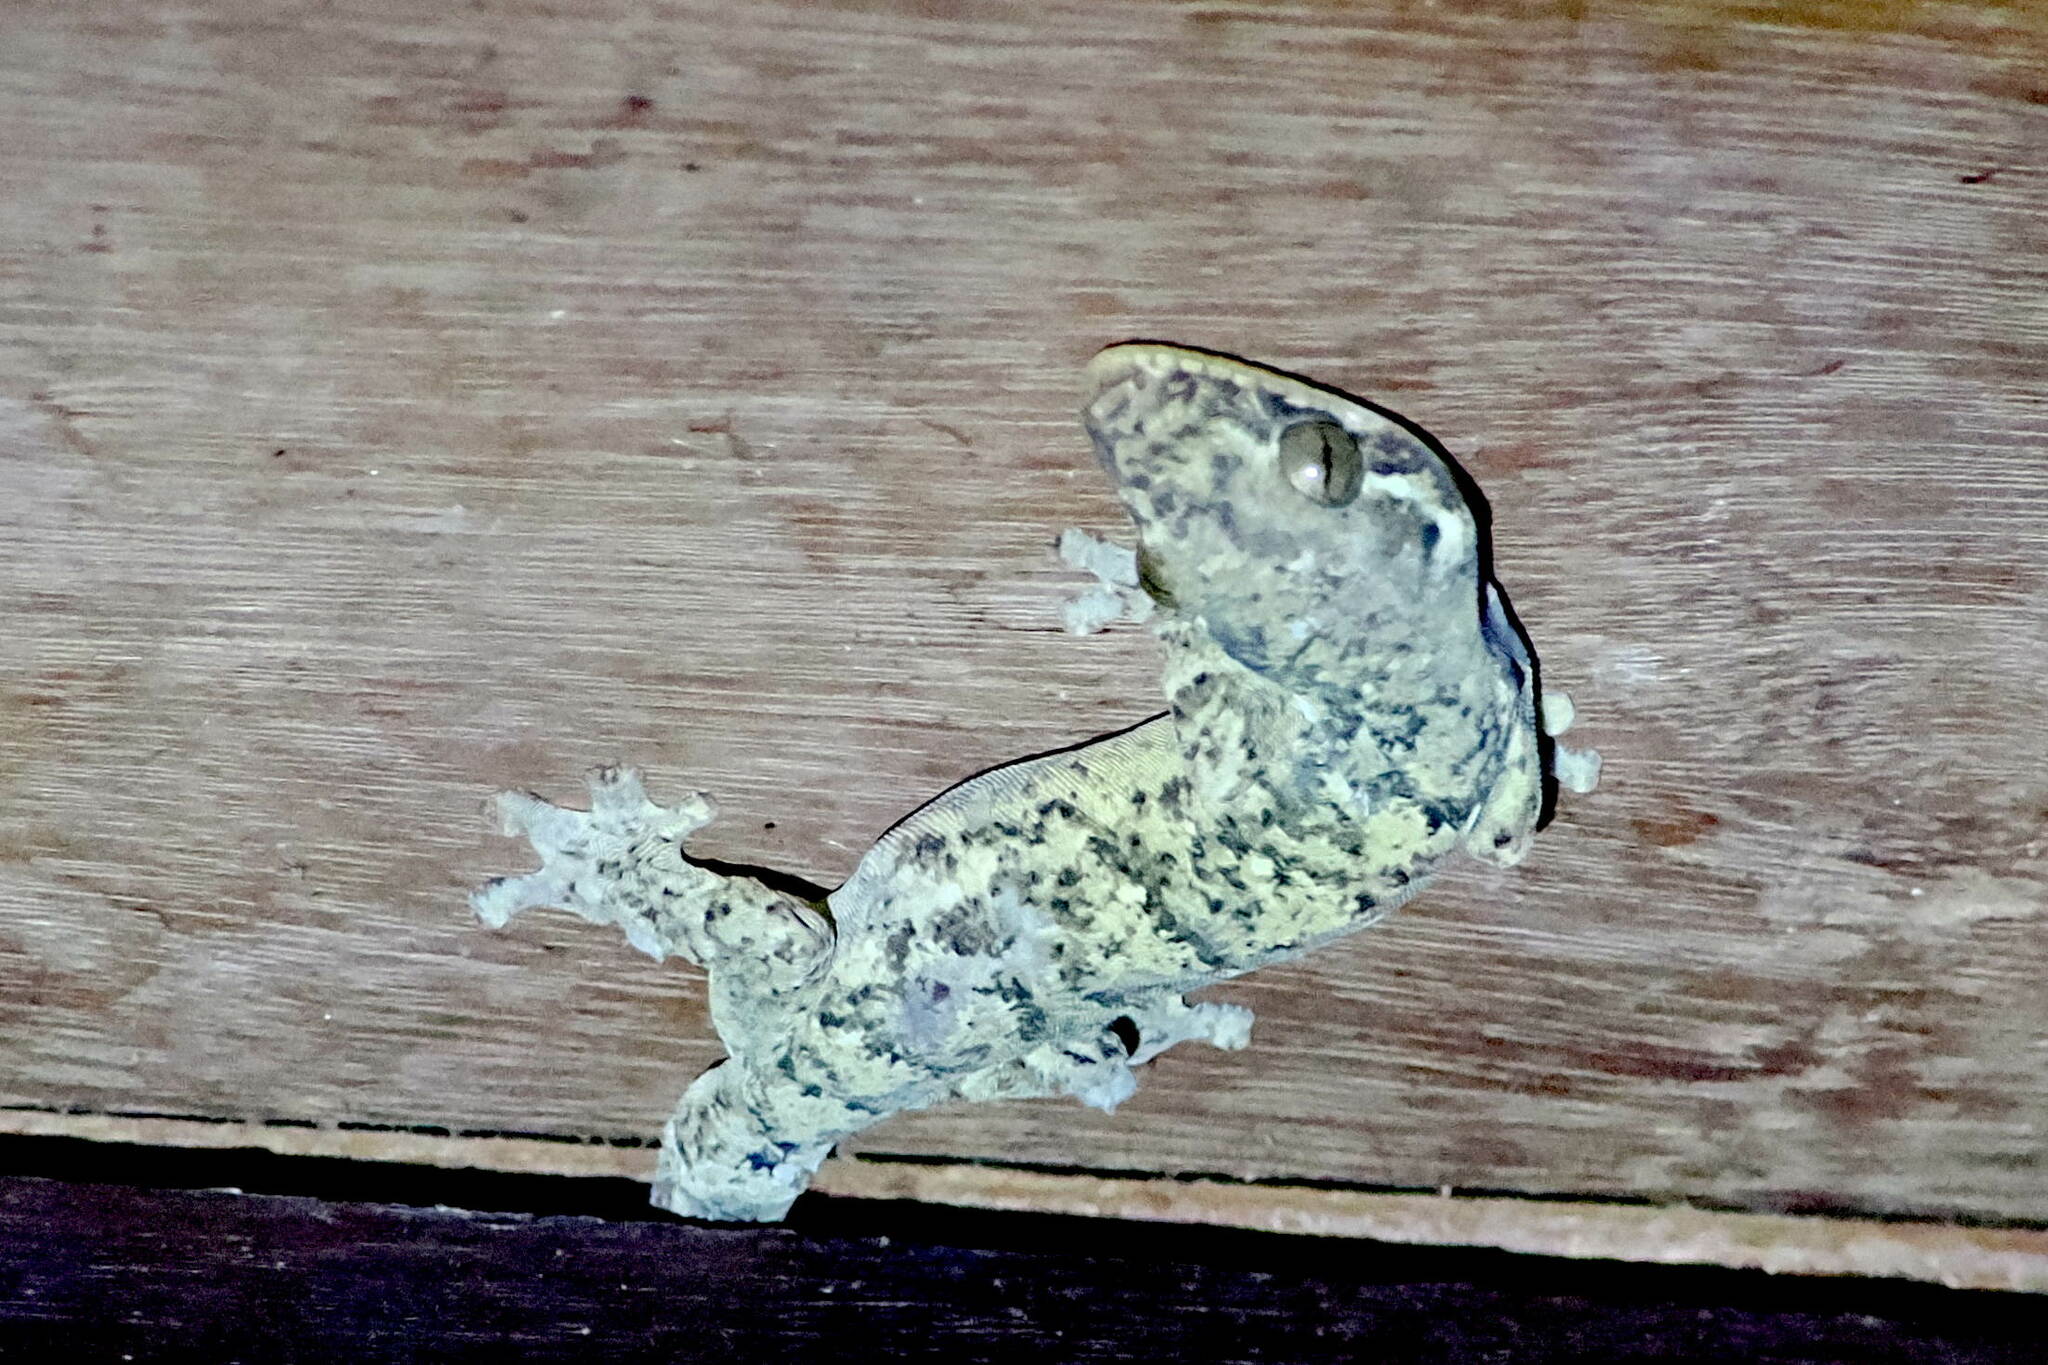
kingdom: Animalia
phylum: Chordata
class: Squamata
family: Phyllodactylidae
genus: Thecadactylus
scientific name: Thecadactylus rapicauda
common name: Turnip-tailed gecko
